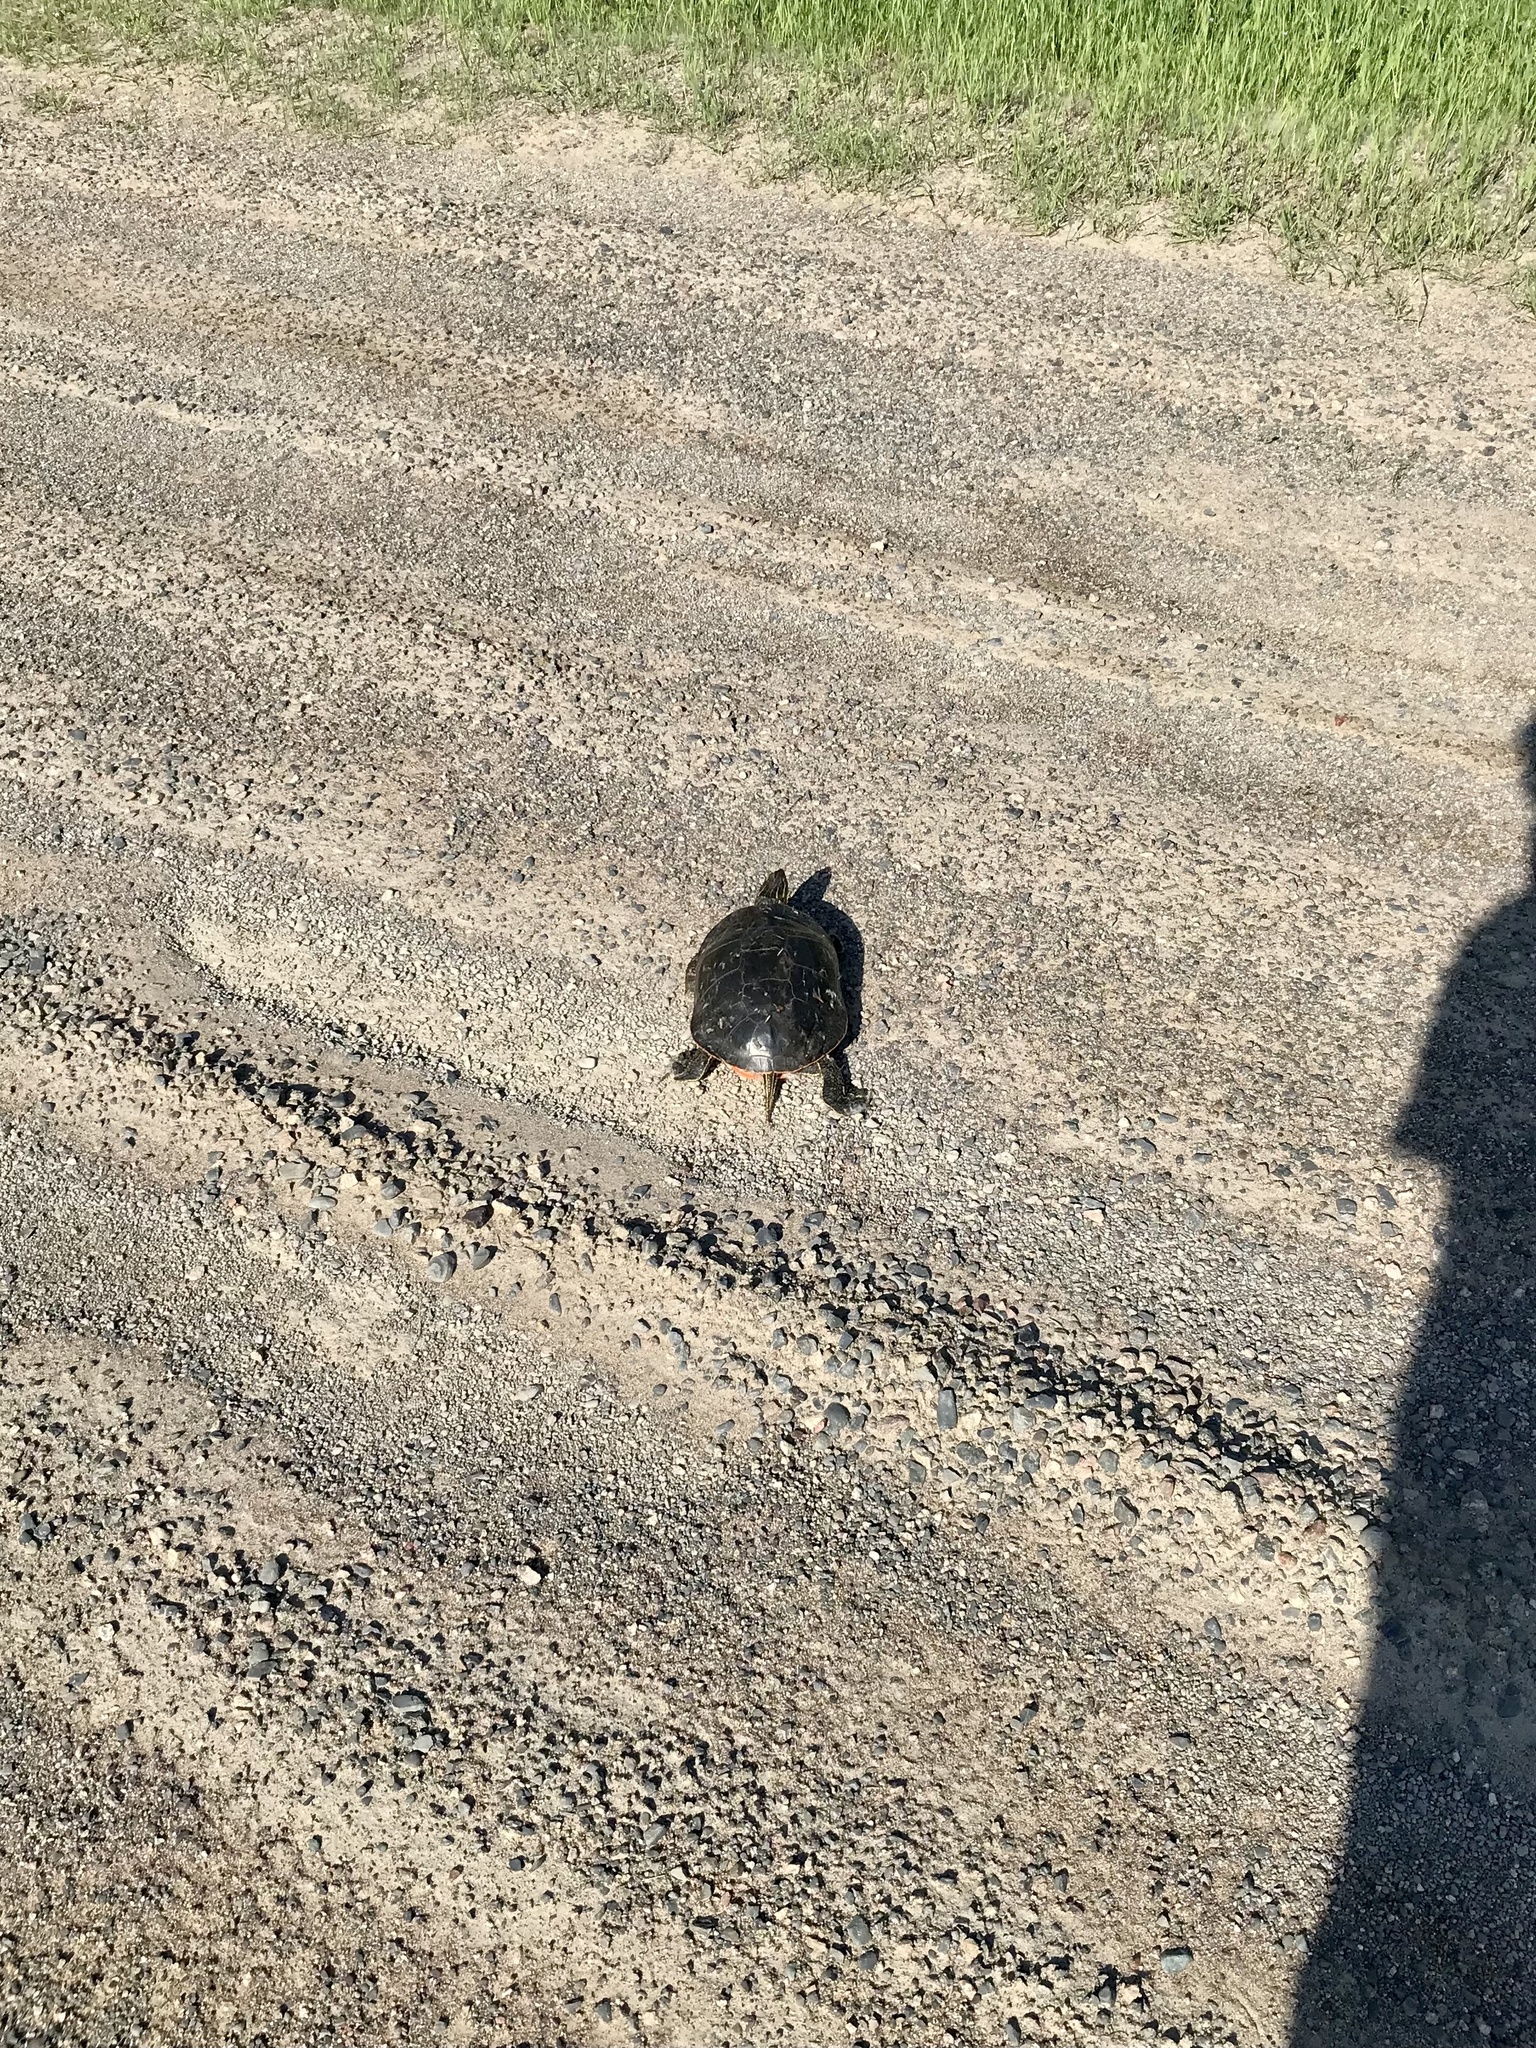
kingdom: Animalia
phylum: Chordata
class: Testudines
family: Emydidae
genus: Chrysemys
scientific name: Chrysemys picta
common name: Painted turtle
